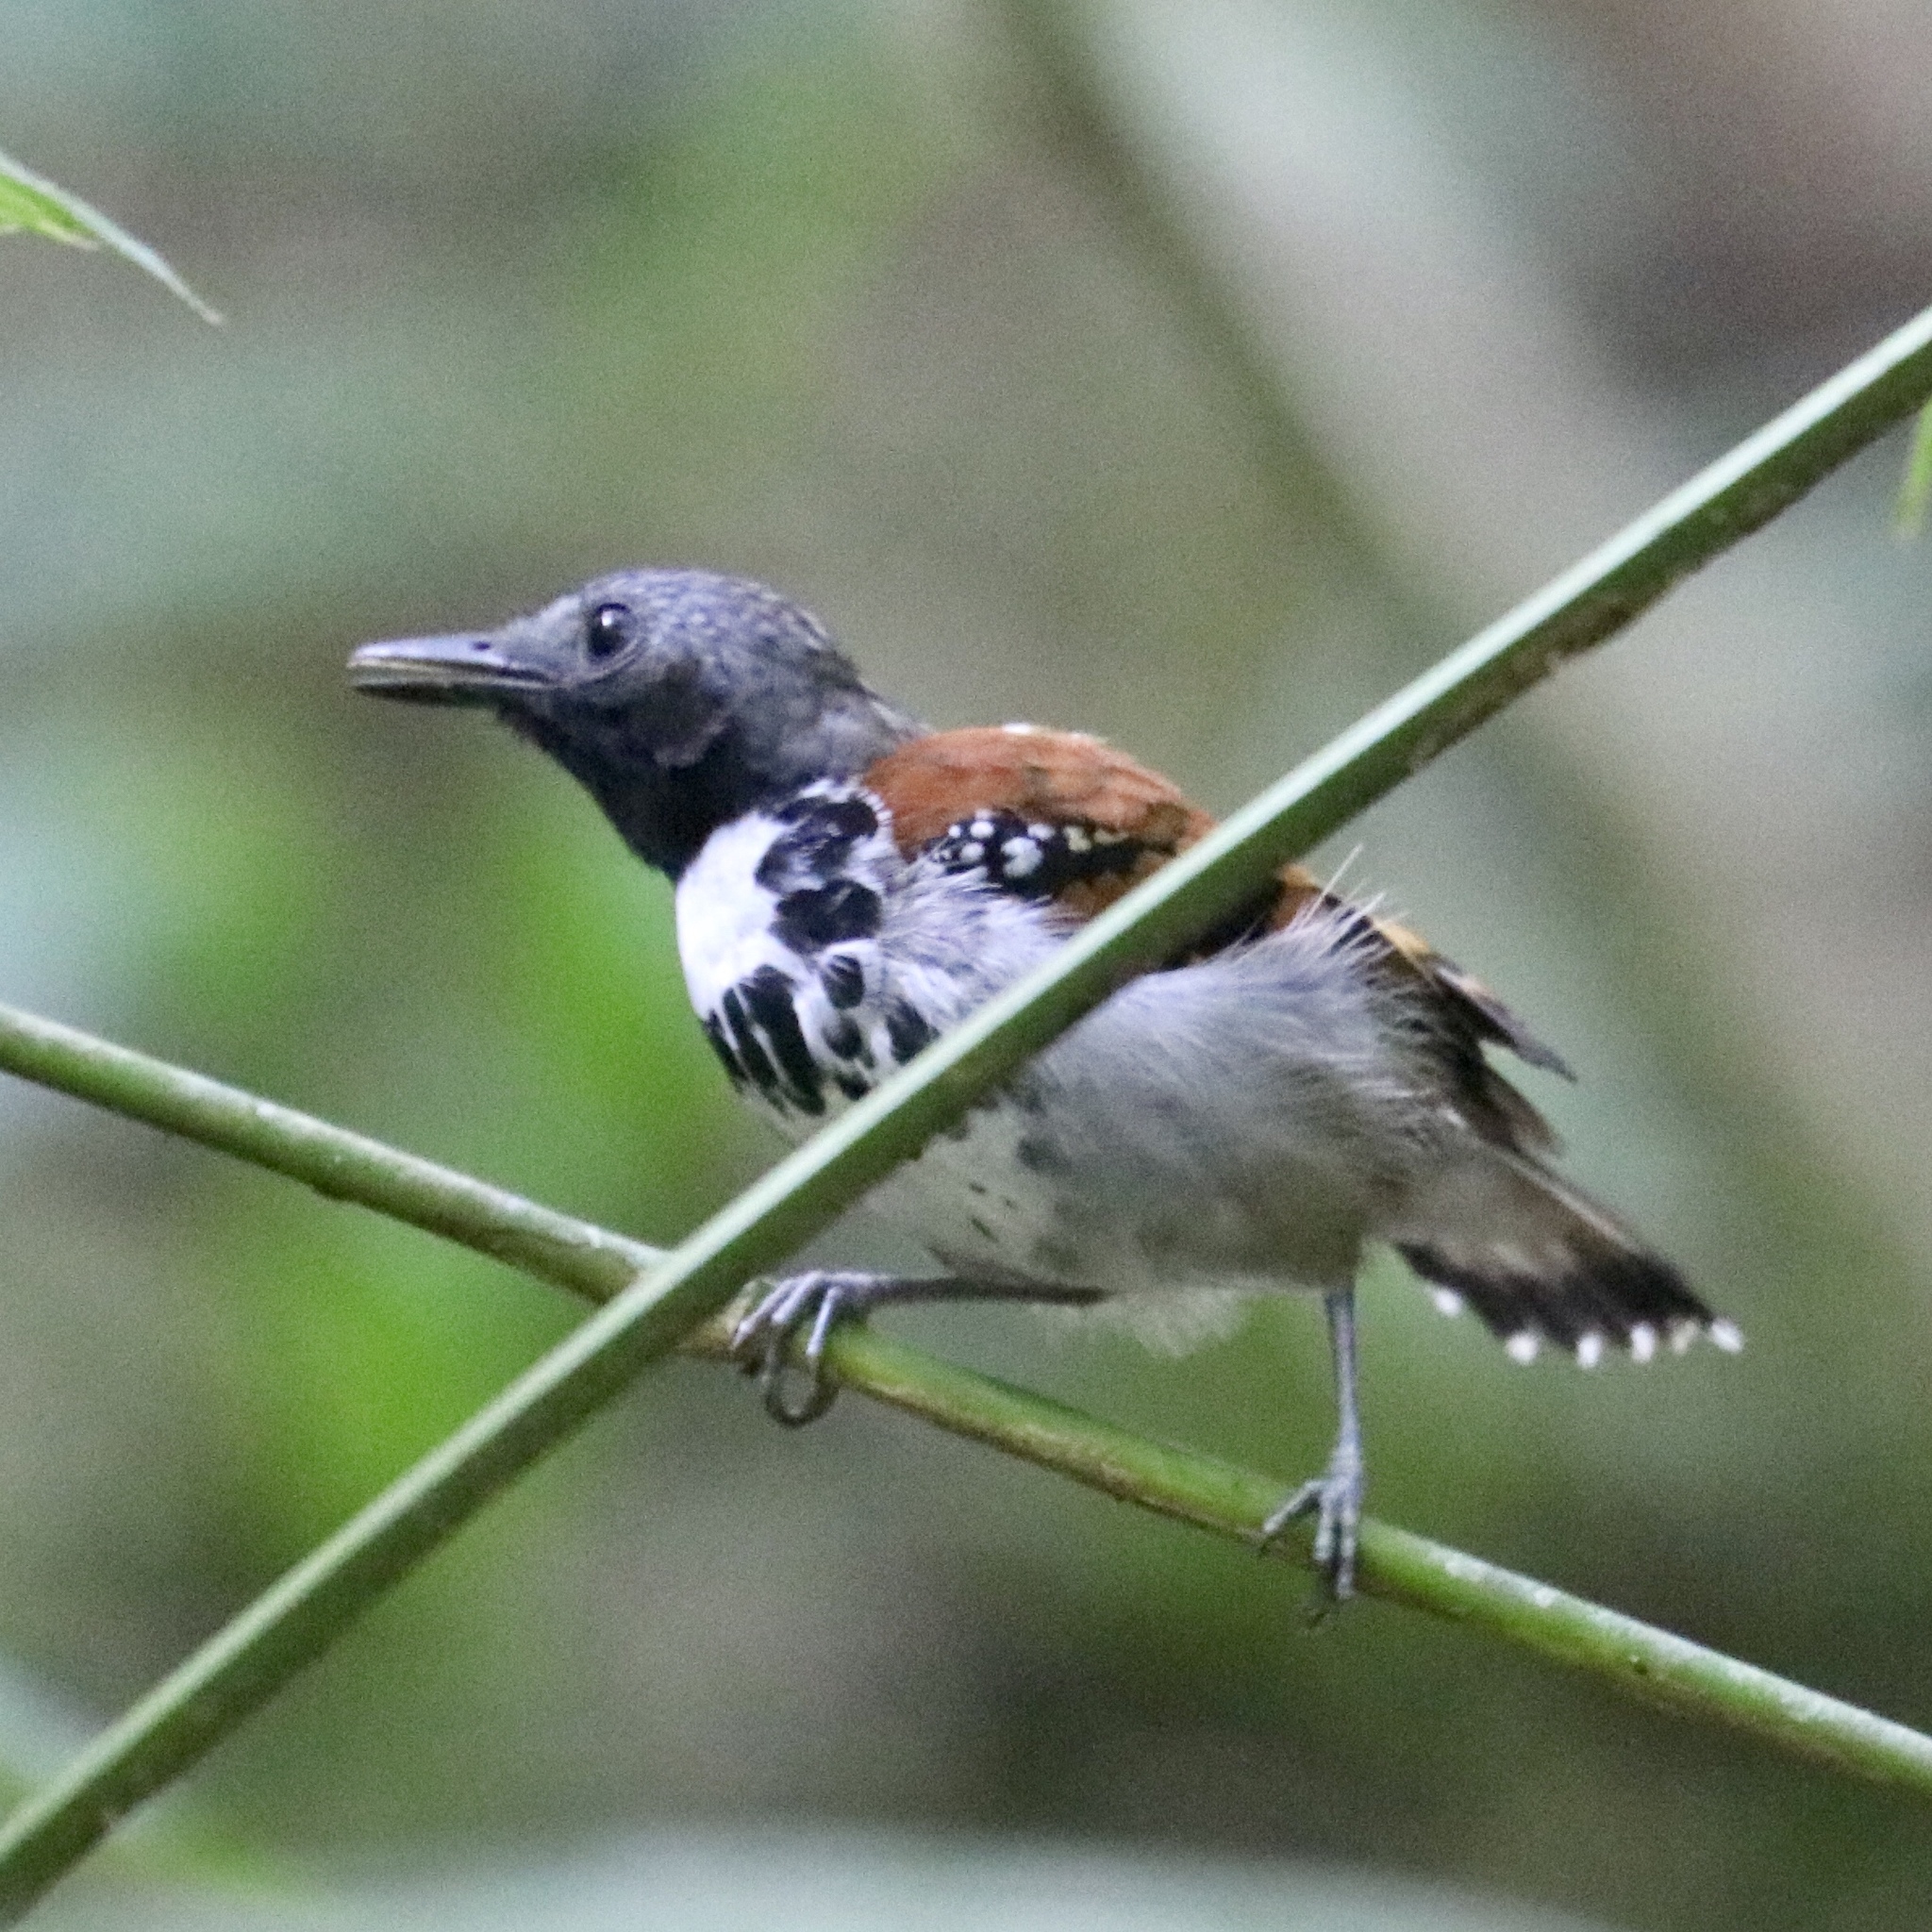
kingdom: Animalia
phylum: Chordata
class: Aves
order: Passeriformes
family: Thamnophilidae
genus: Hylophylax
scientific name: Hylophylax naevioides
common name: Spotted antbird
